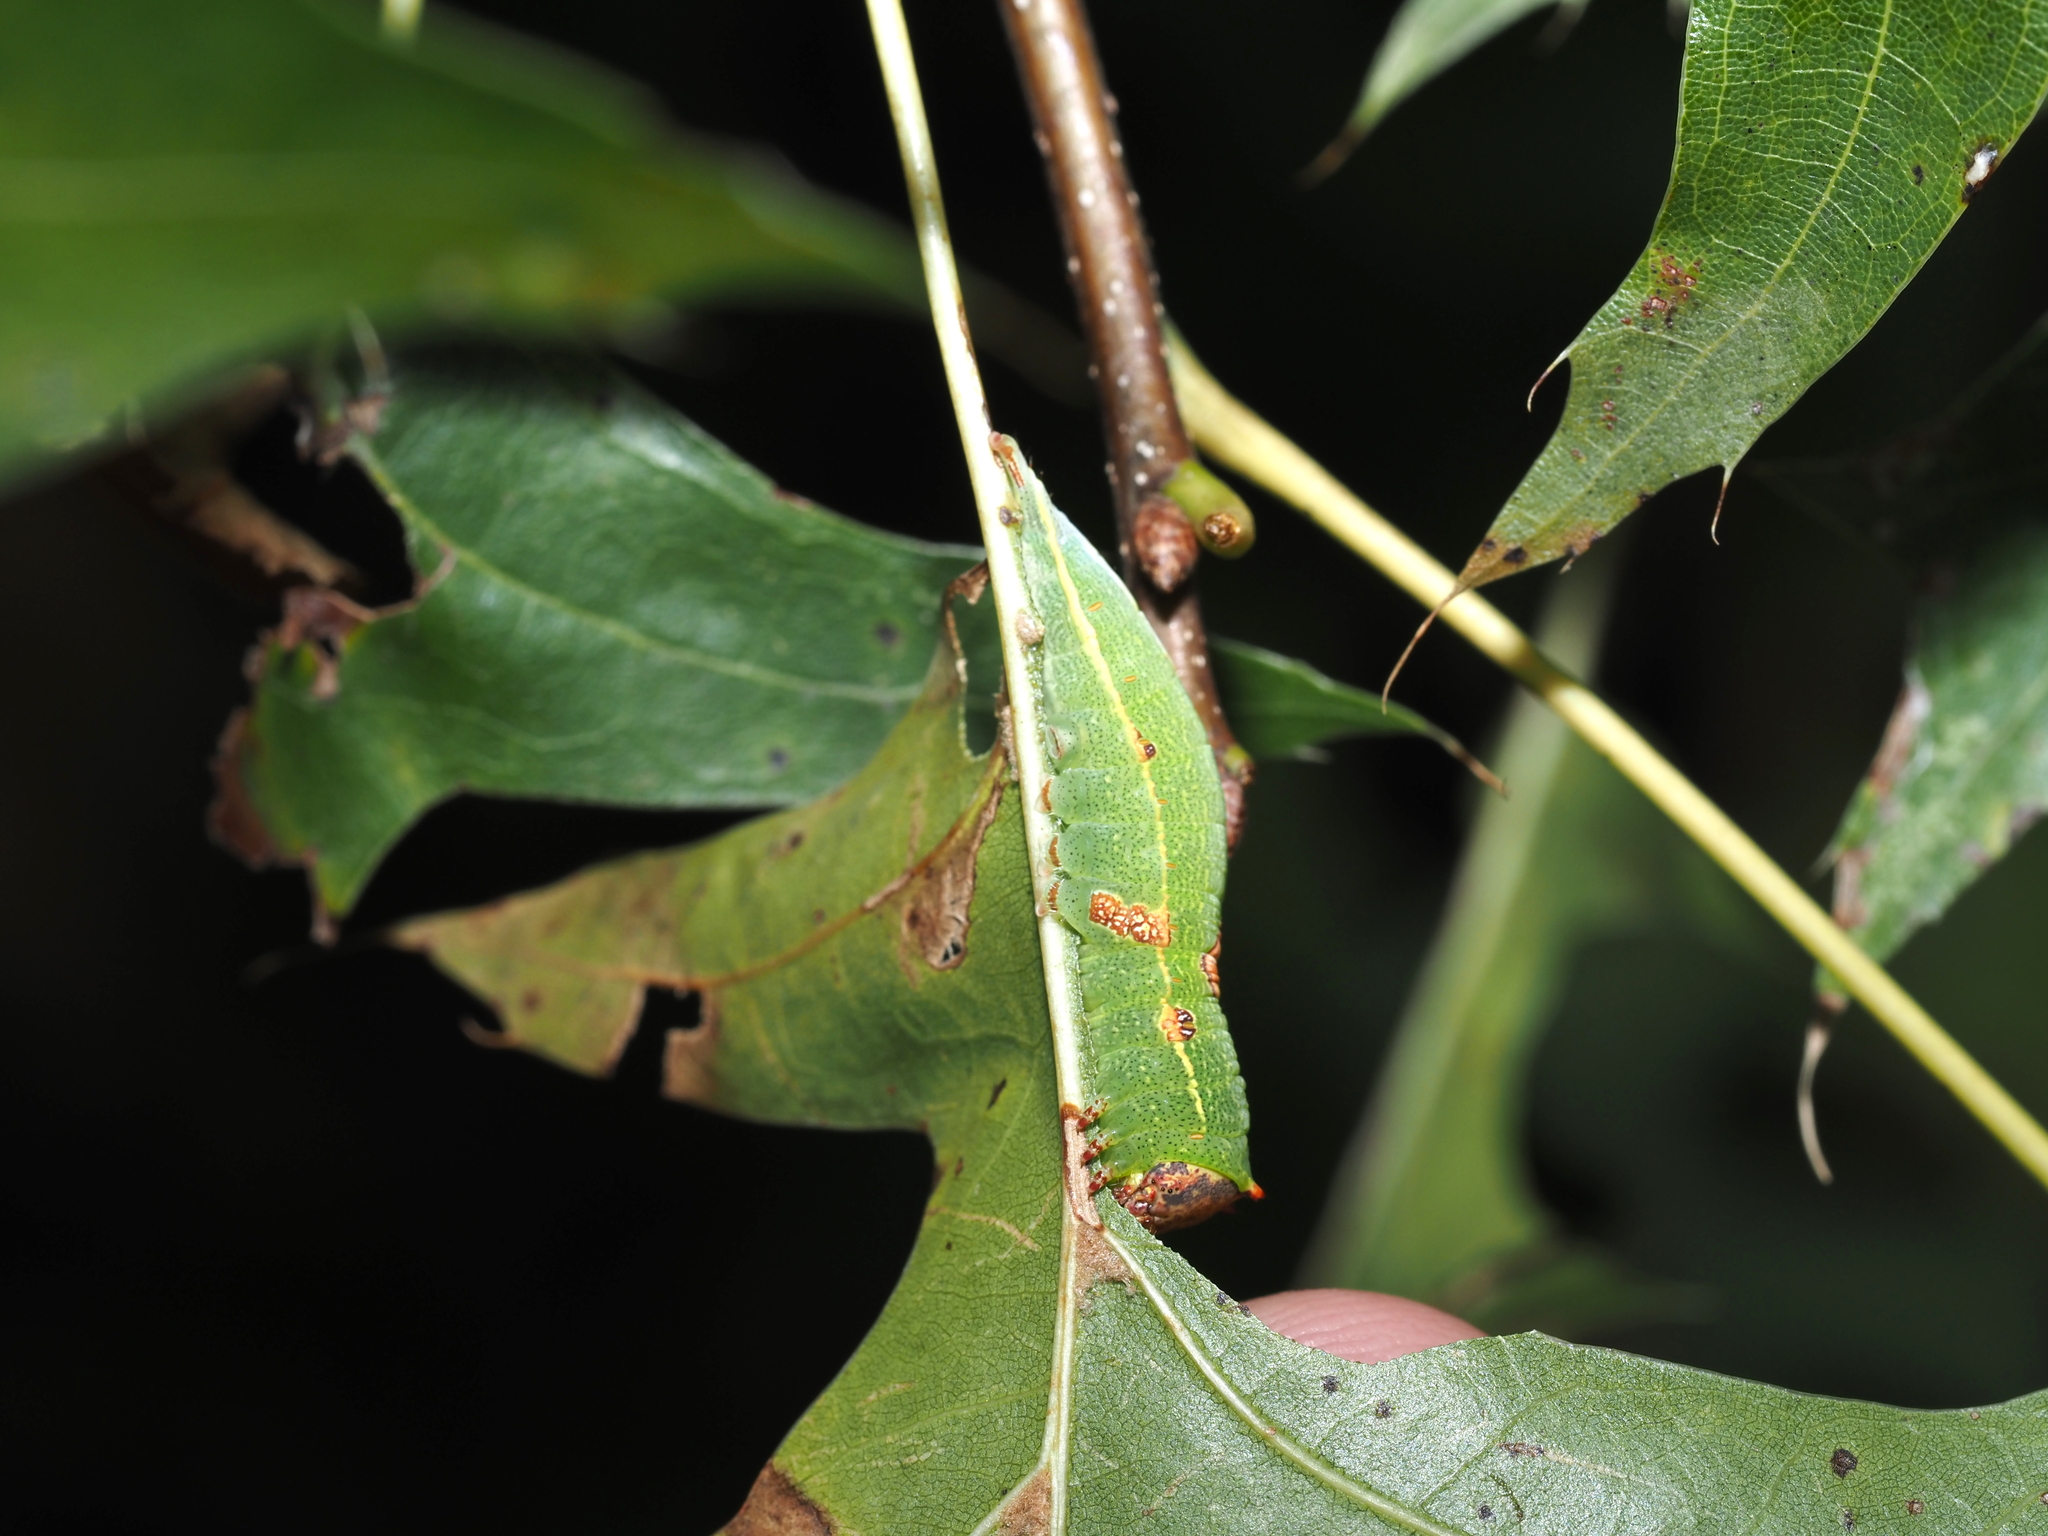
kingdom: Animalia
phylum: Arthropoda
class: Insecta
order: Lepidoptera
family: Notodontidae
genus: Heterocampa
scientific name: Heterocampa obliqua
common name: Oblique heterocampa
